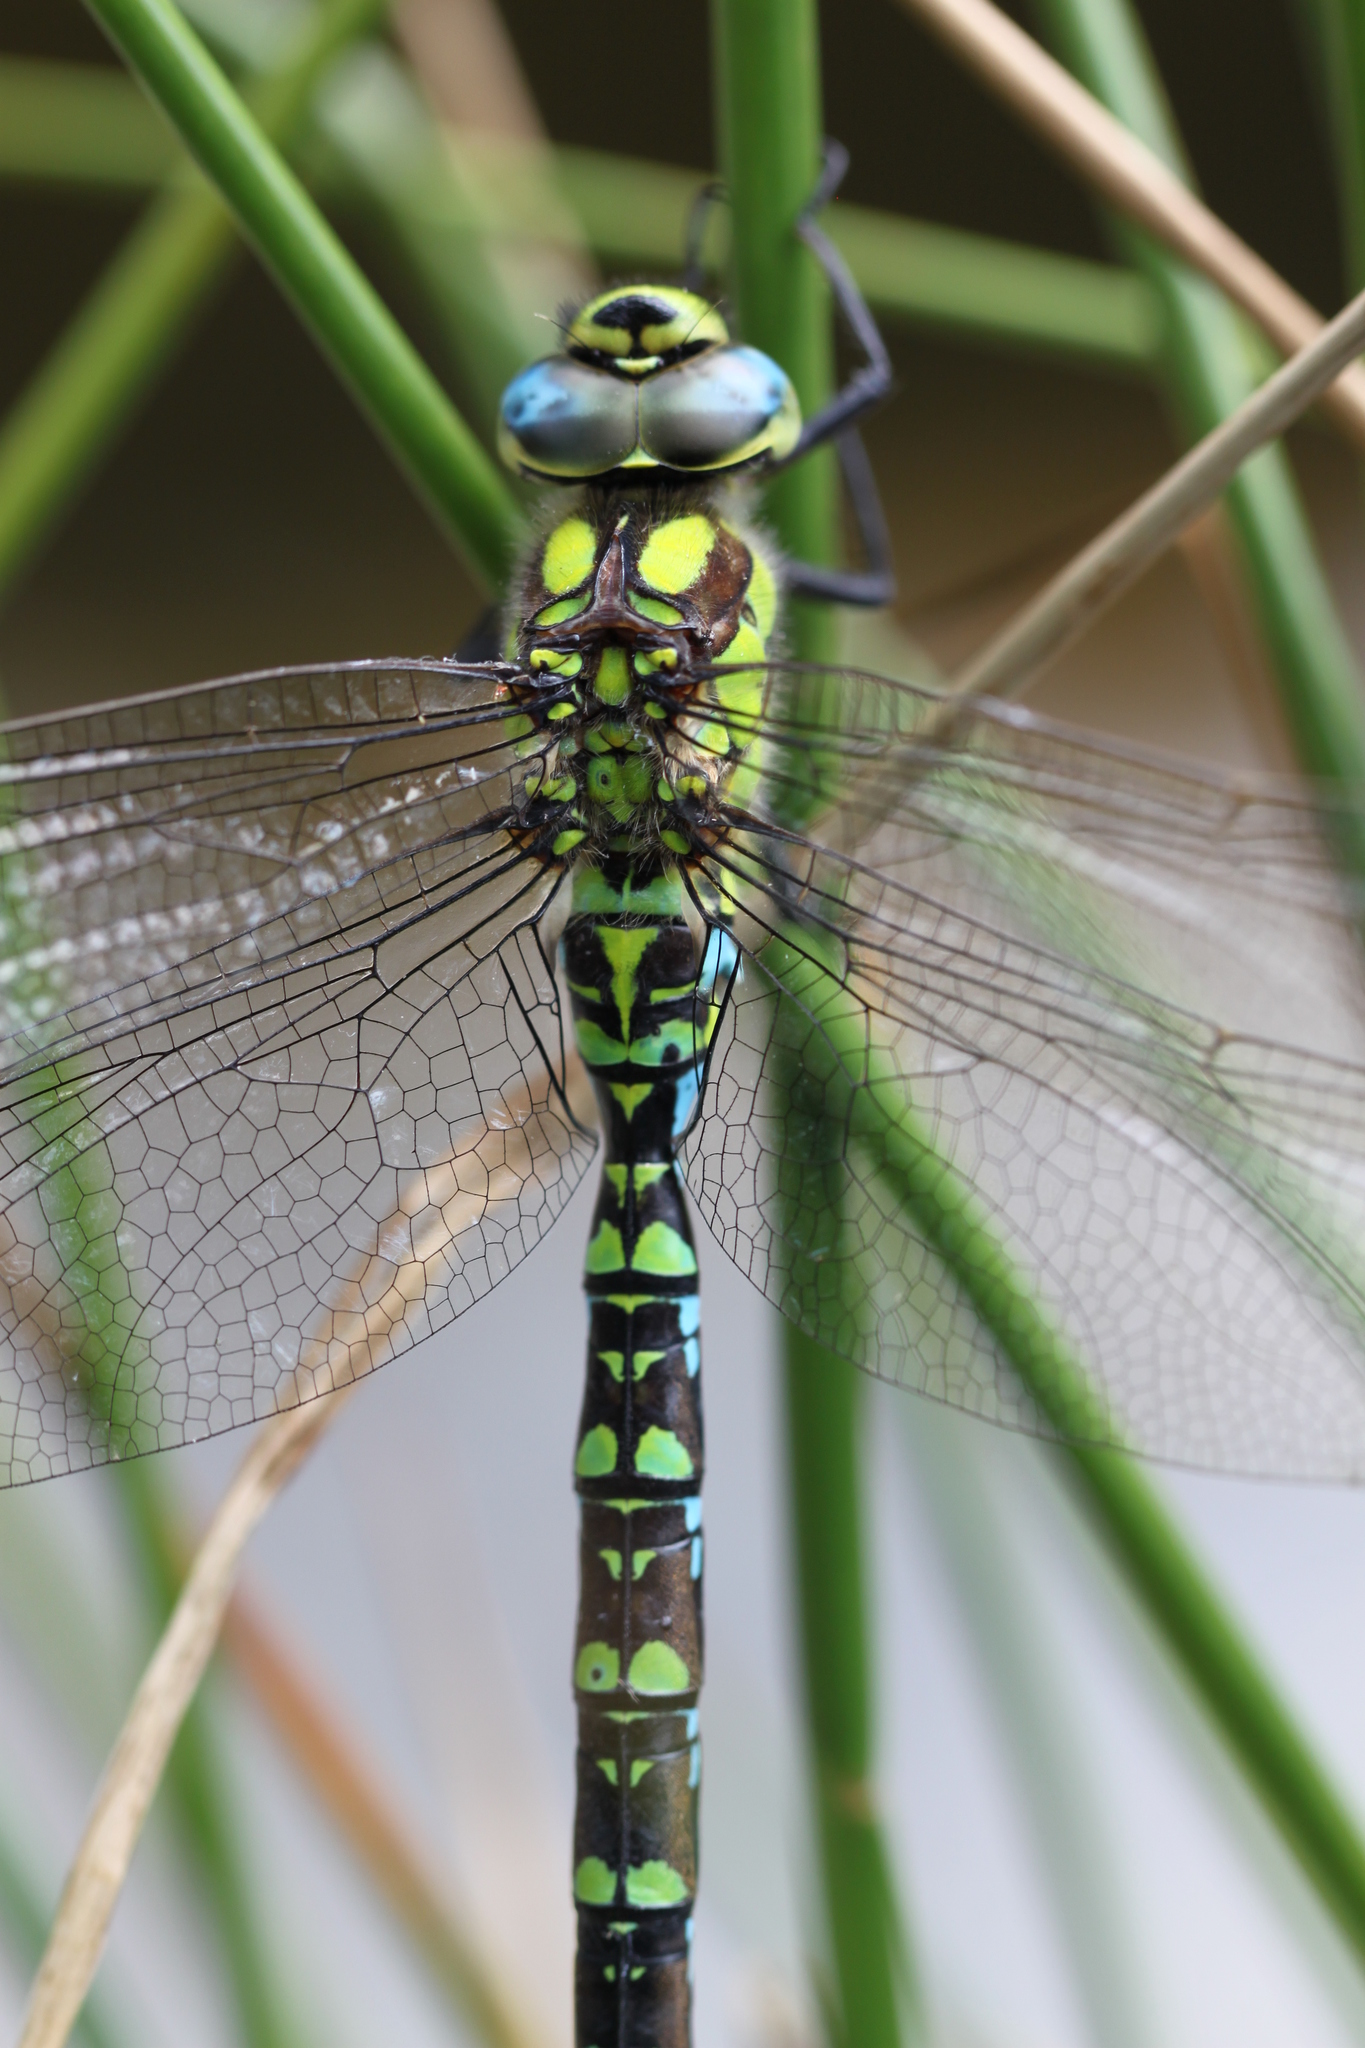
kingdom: Animalia
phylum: Arthropoda
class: Insecta
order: Odonata
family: Aeshnidae
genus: Aeshna
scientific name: Aeshna cyanea
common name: Southern hawker
